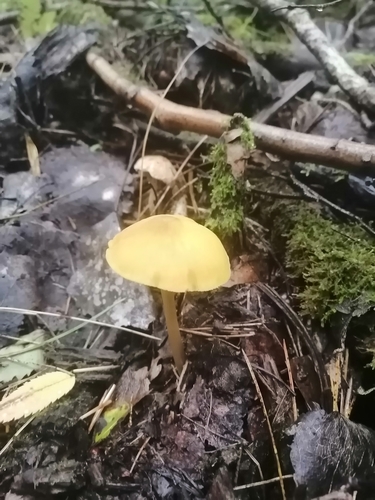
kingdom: Fungi
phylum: Basidiomycota
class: Agaricomycetes
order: Agaricales
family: Pluteaceae
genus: Pluteus
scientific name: Pluteus chrysophaeus
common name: Yellow shield
